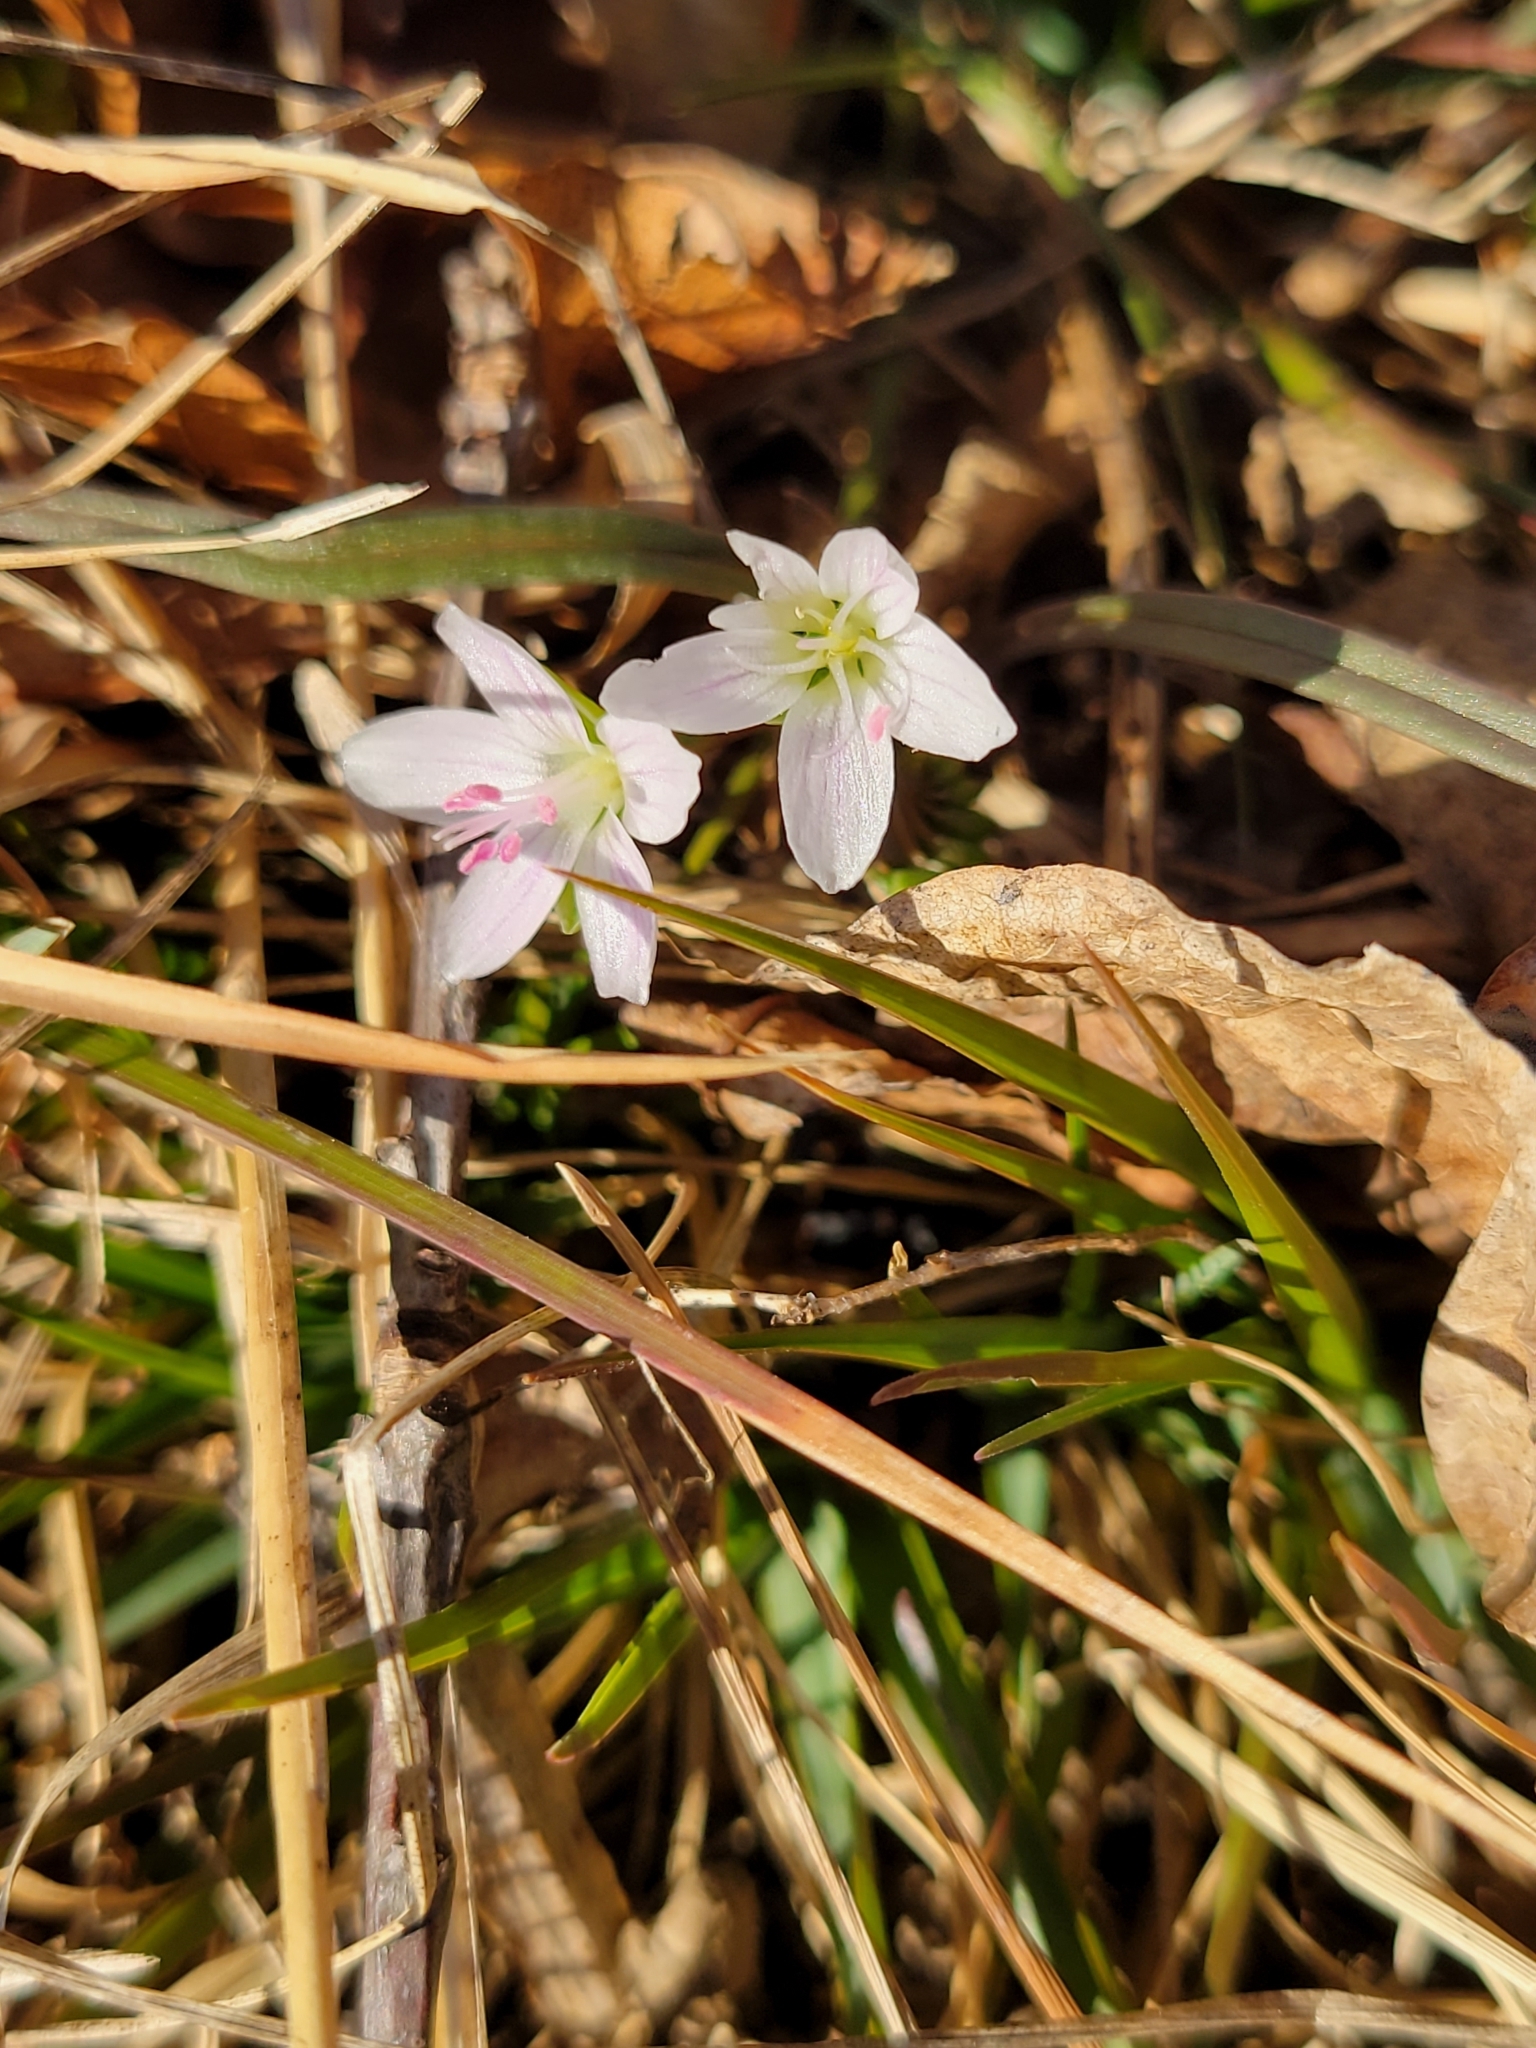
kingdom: Plantae
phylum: Tracheophyta
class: Magnoliopsida
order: Caryophyllales
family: Montiaceae
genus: Claytonia
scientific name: Claytonia virginica
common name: Virginia springbeauty
